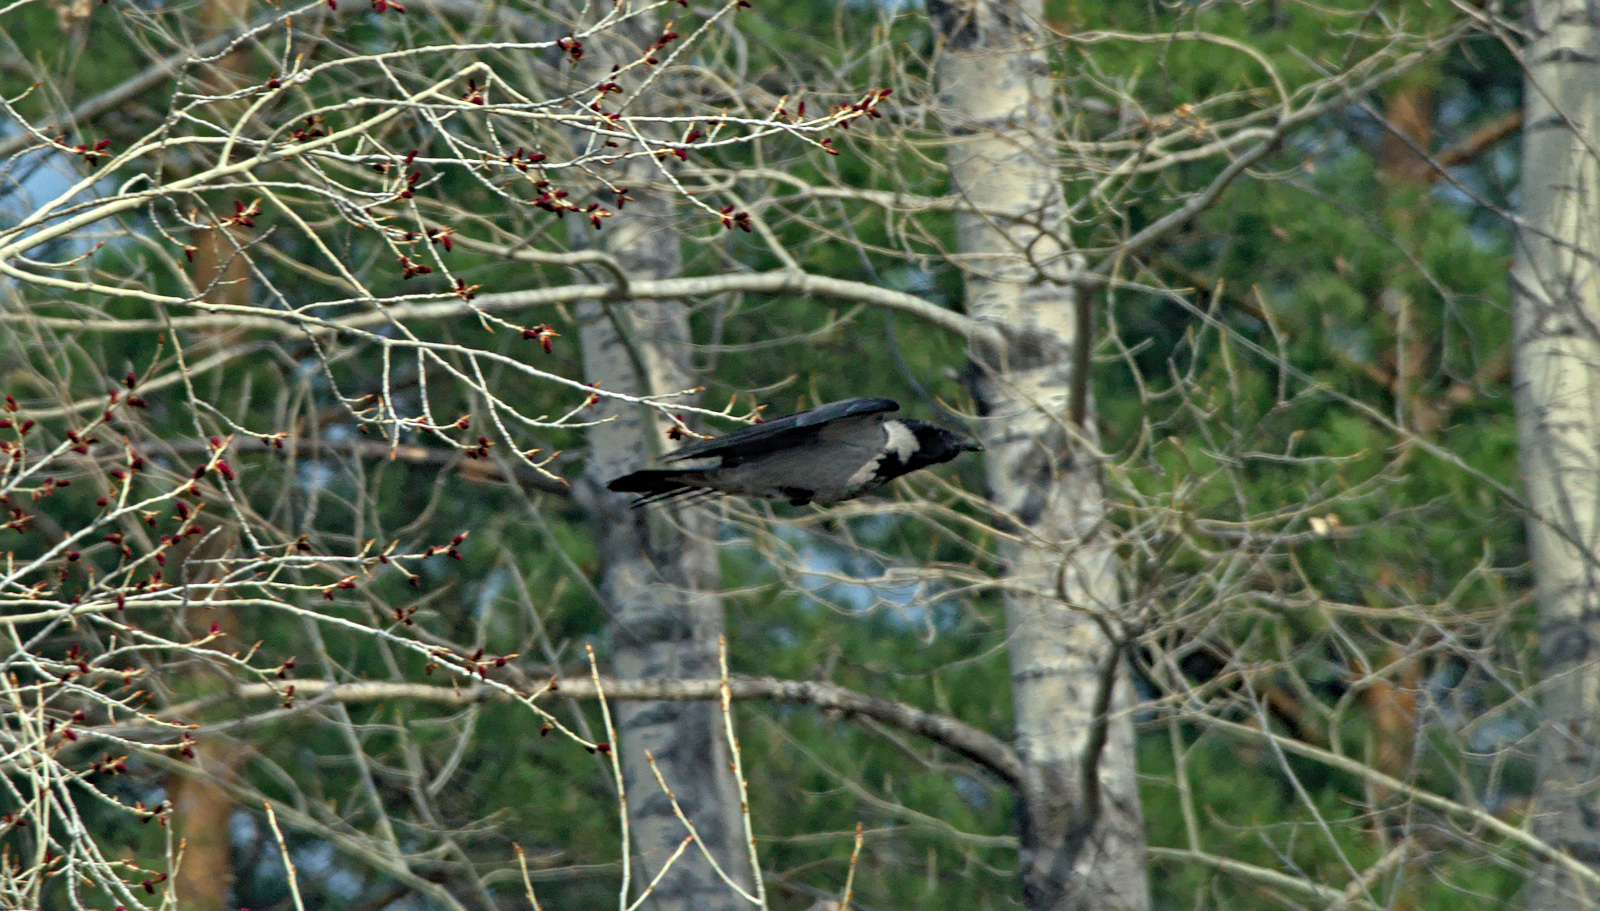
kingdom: Animalia
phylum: Chordata
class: Aves
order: Passeriformes
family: Corvidae
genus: Corvus
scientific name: Corvus cornix
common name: Hooded crow
